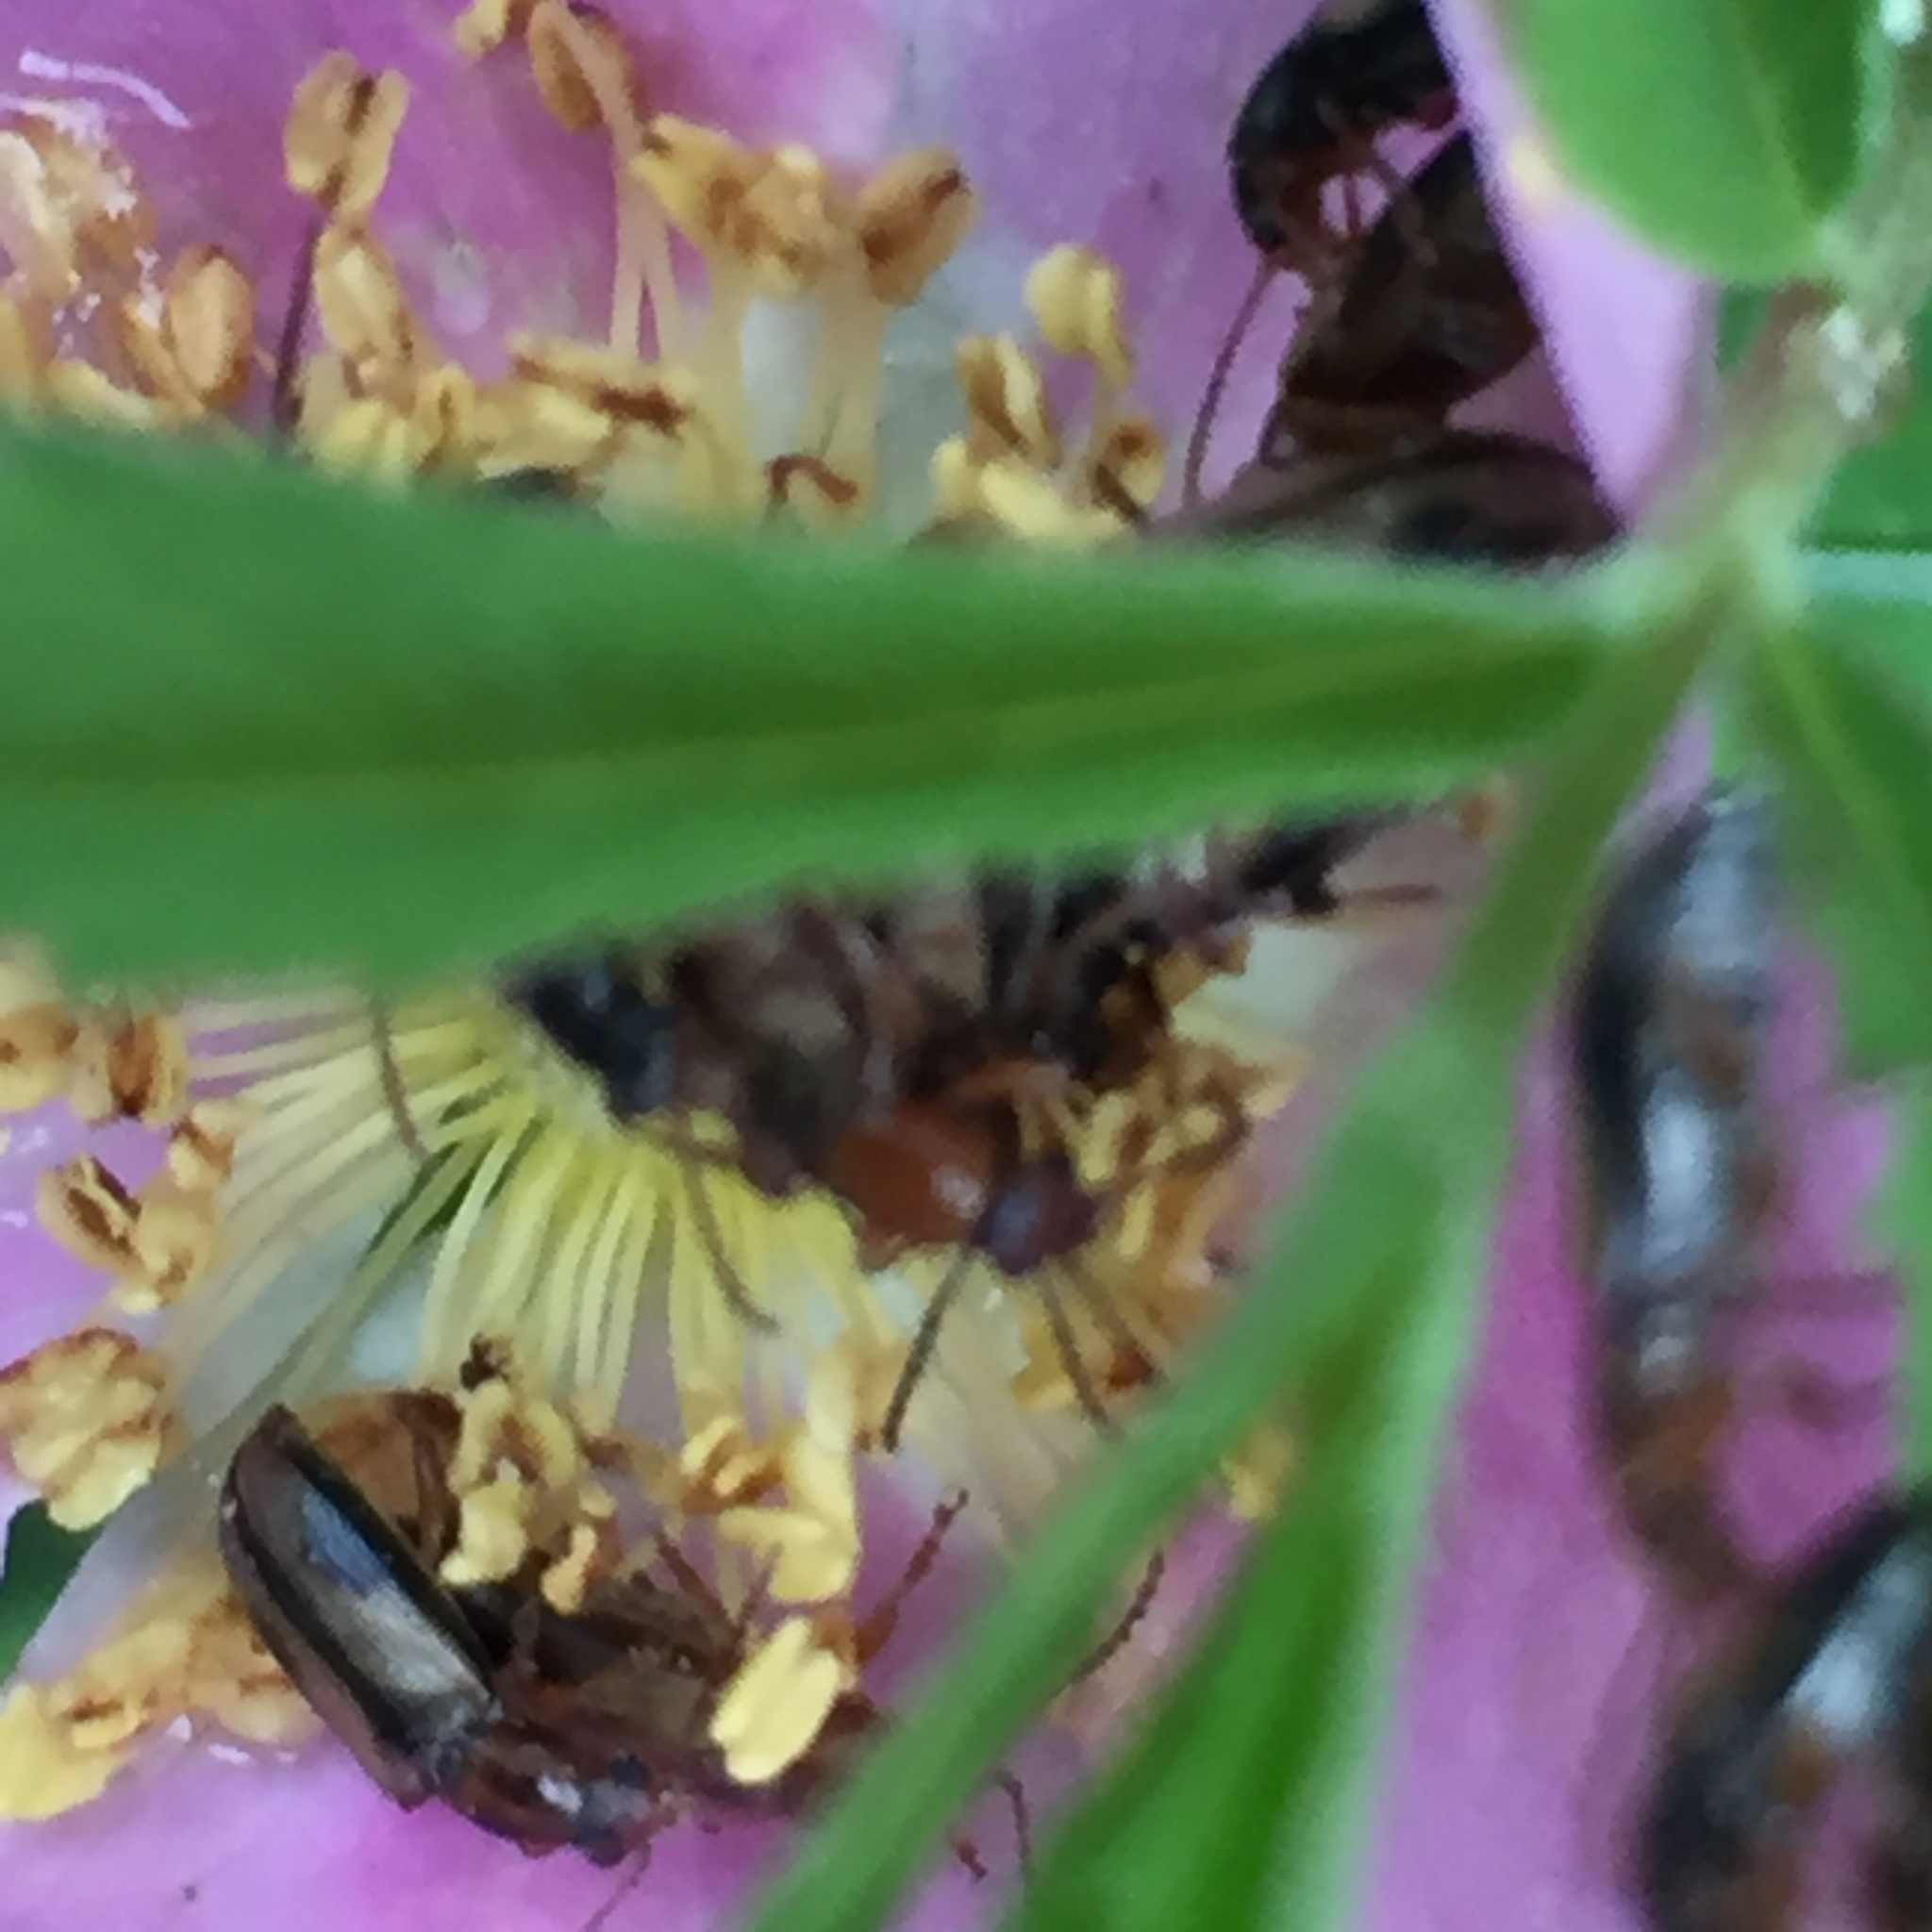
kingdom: Animalia
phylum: Arthropoda
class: Insecta
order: Coleoptera
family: Orsodacnidae
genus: Orsodacne
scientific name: Orsodacne atra
